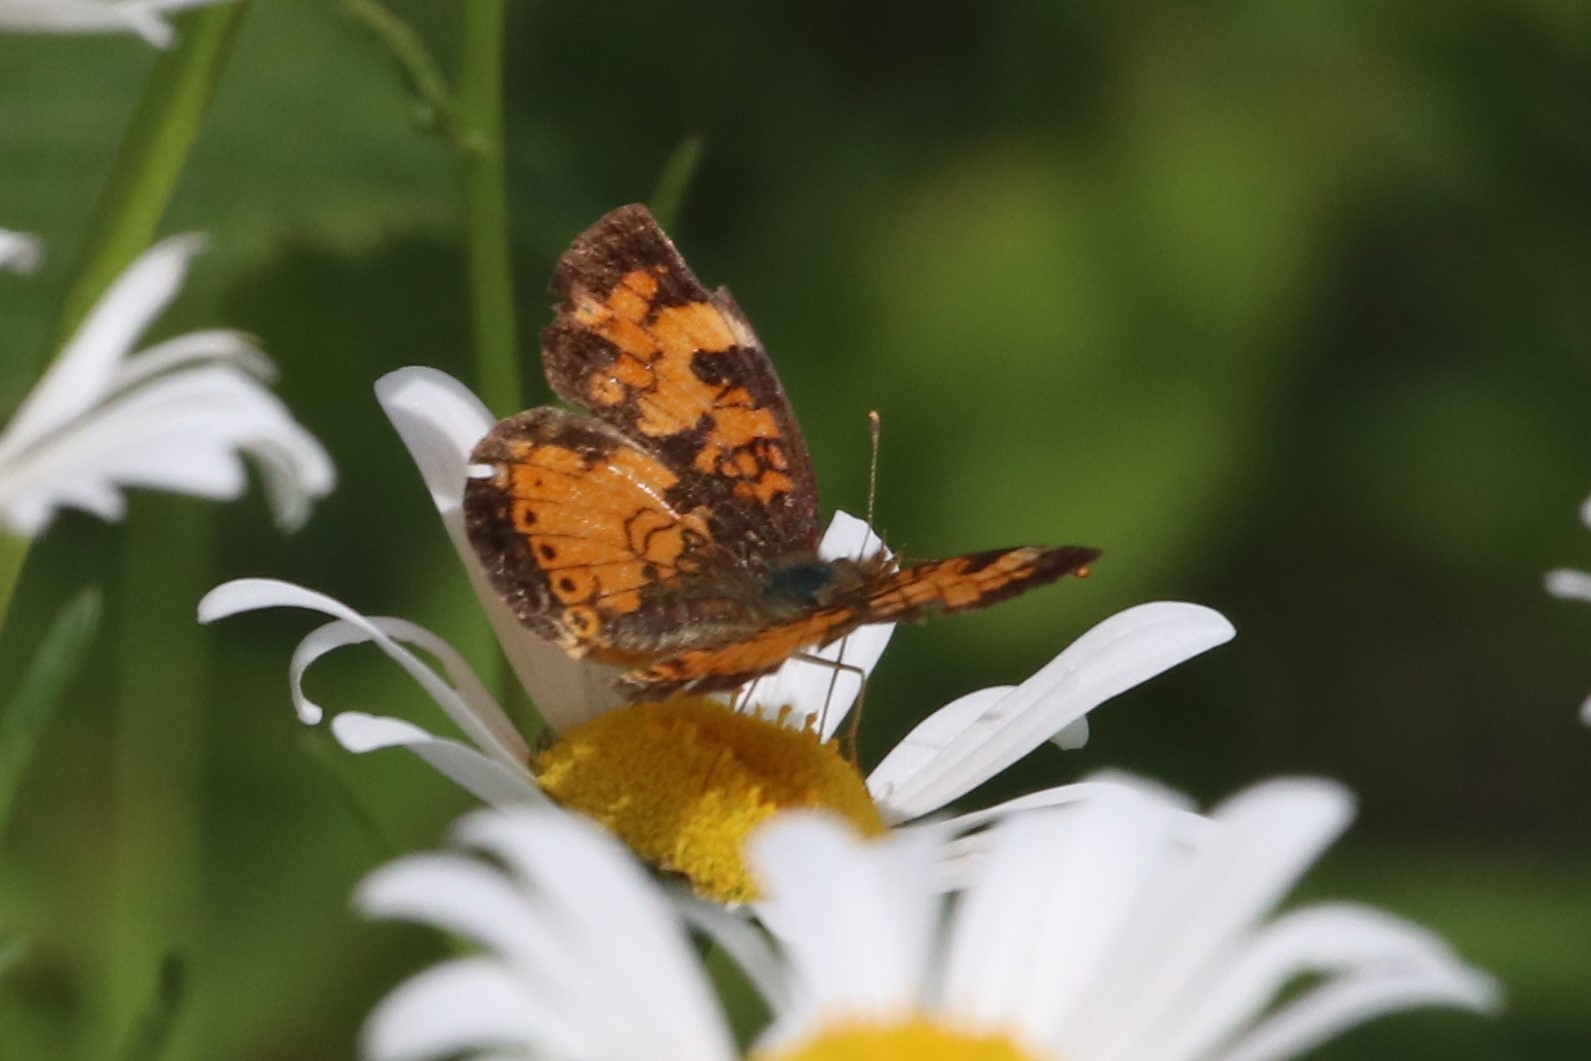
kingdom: Animalia
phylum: Arthropoda
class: Insecta
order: Lepidoptera
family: Nymphalidae
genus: Phyciodes
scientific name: Phyciodes tharos
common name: Pearl crescent
